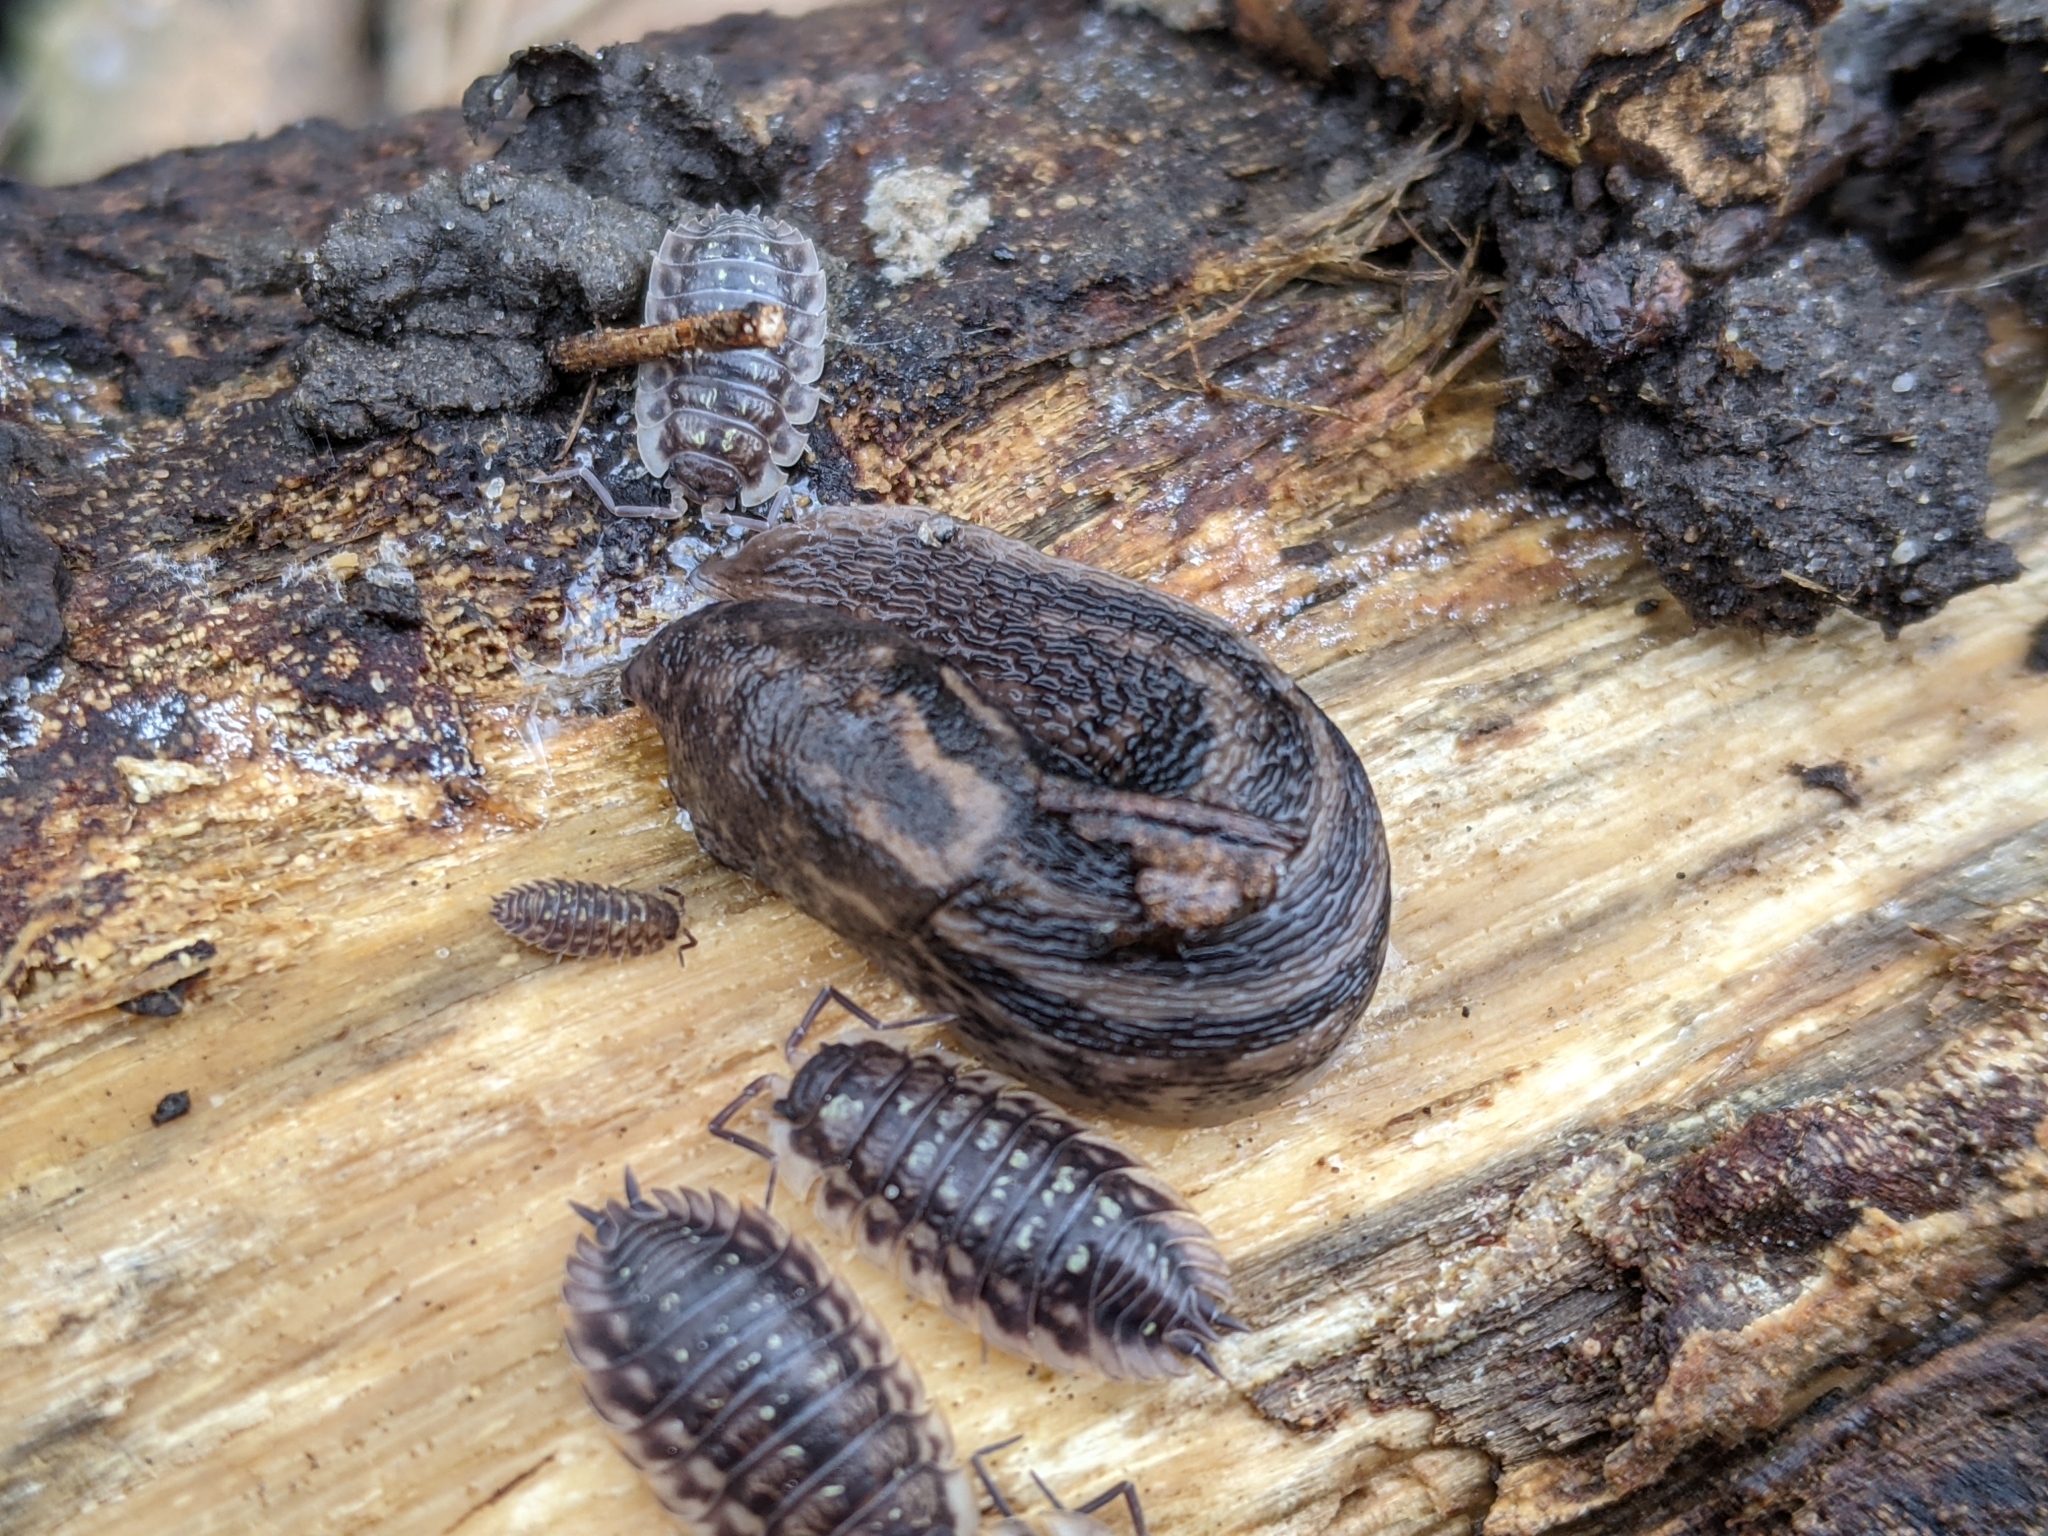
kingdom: Animalia
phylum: Mollusca
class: Gastropoda
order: Stylommatophora
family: Limacidae
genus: Limax
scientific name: Limax maximus
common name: Great grey slug
